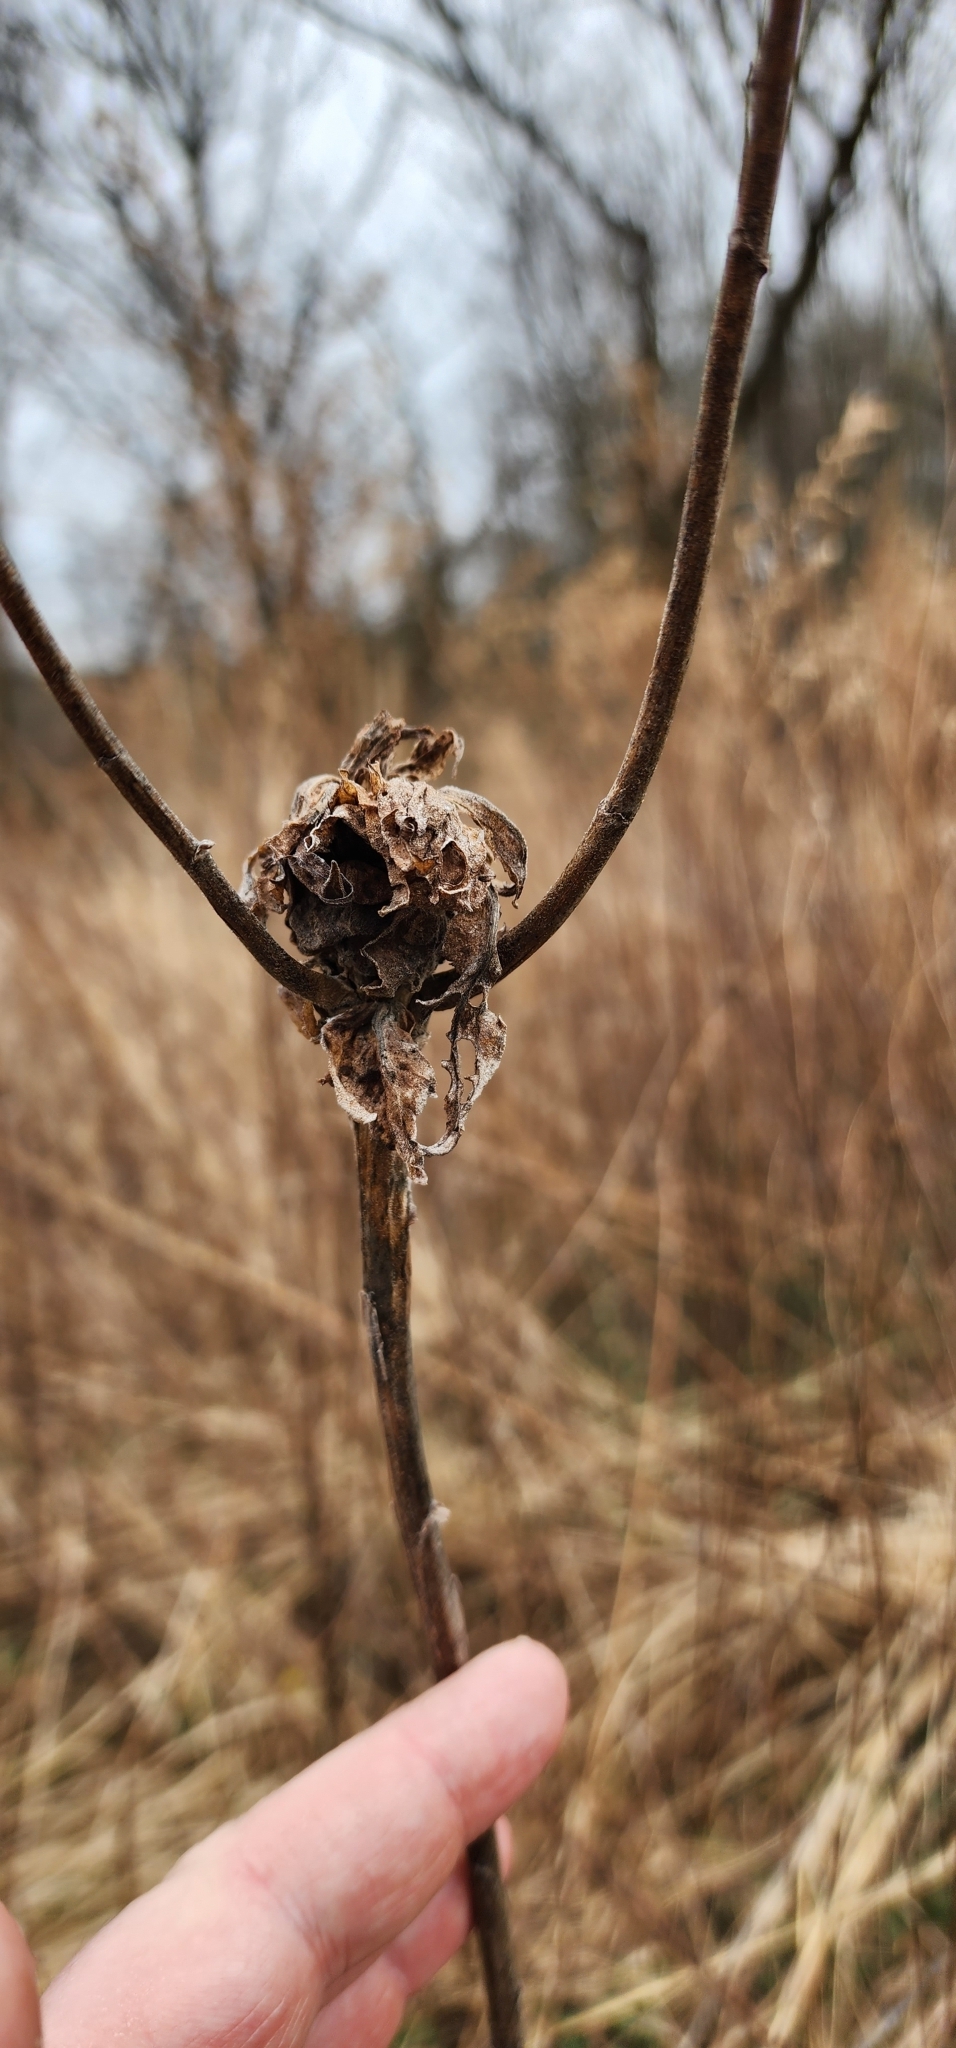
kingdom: Animalia
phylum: Arthropoda
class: Insecta
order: Diptera
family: Cecidomyiidae
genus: Rhopalomyia
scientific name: Rhopalomyia solidaginis
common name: Goldenrod bunch gall midge
